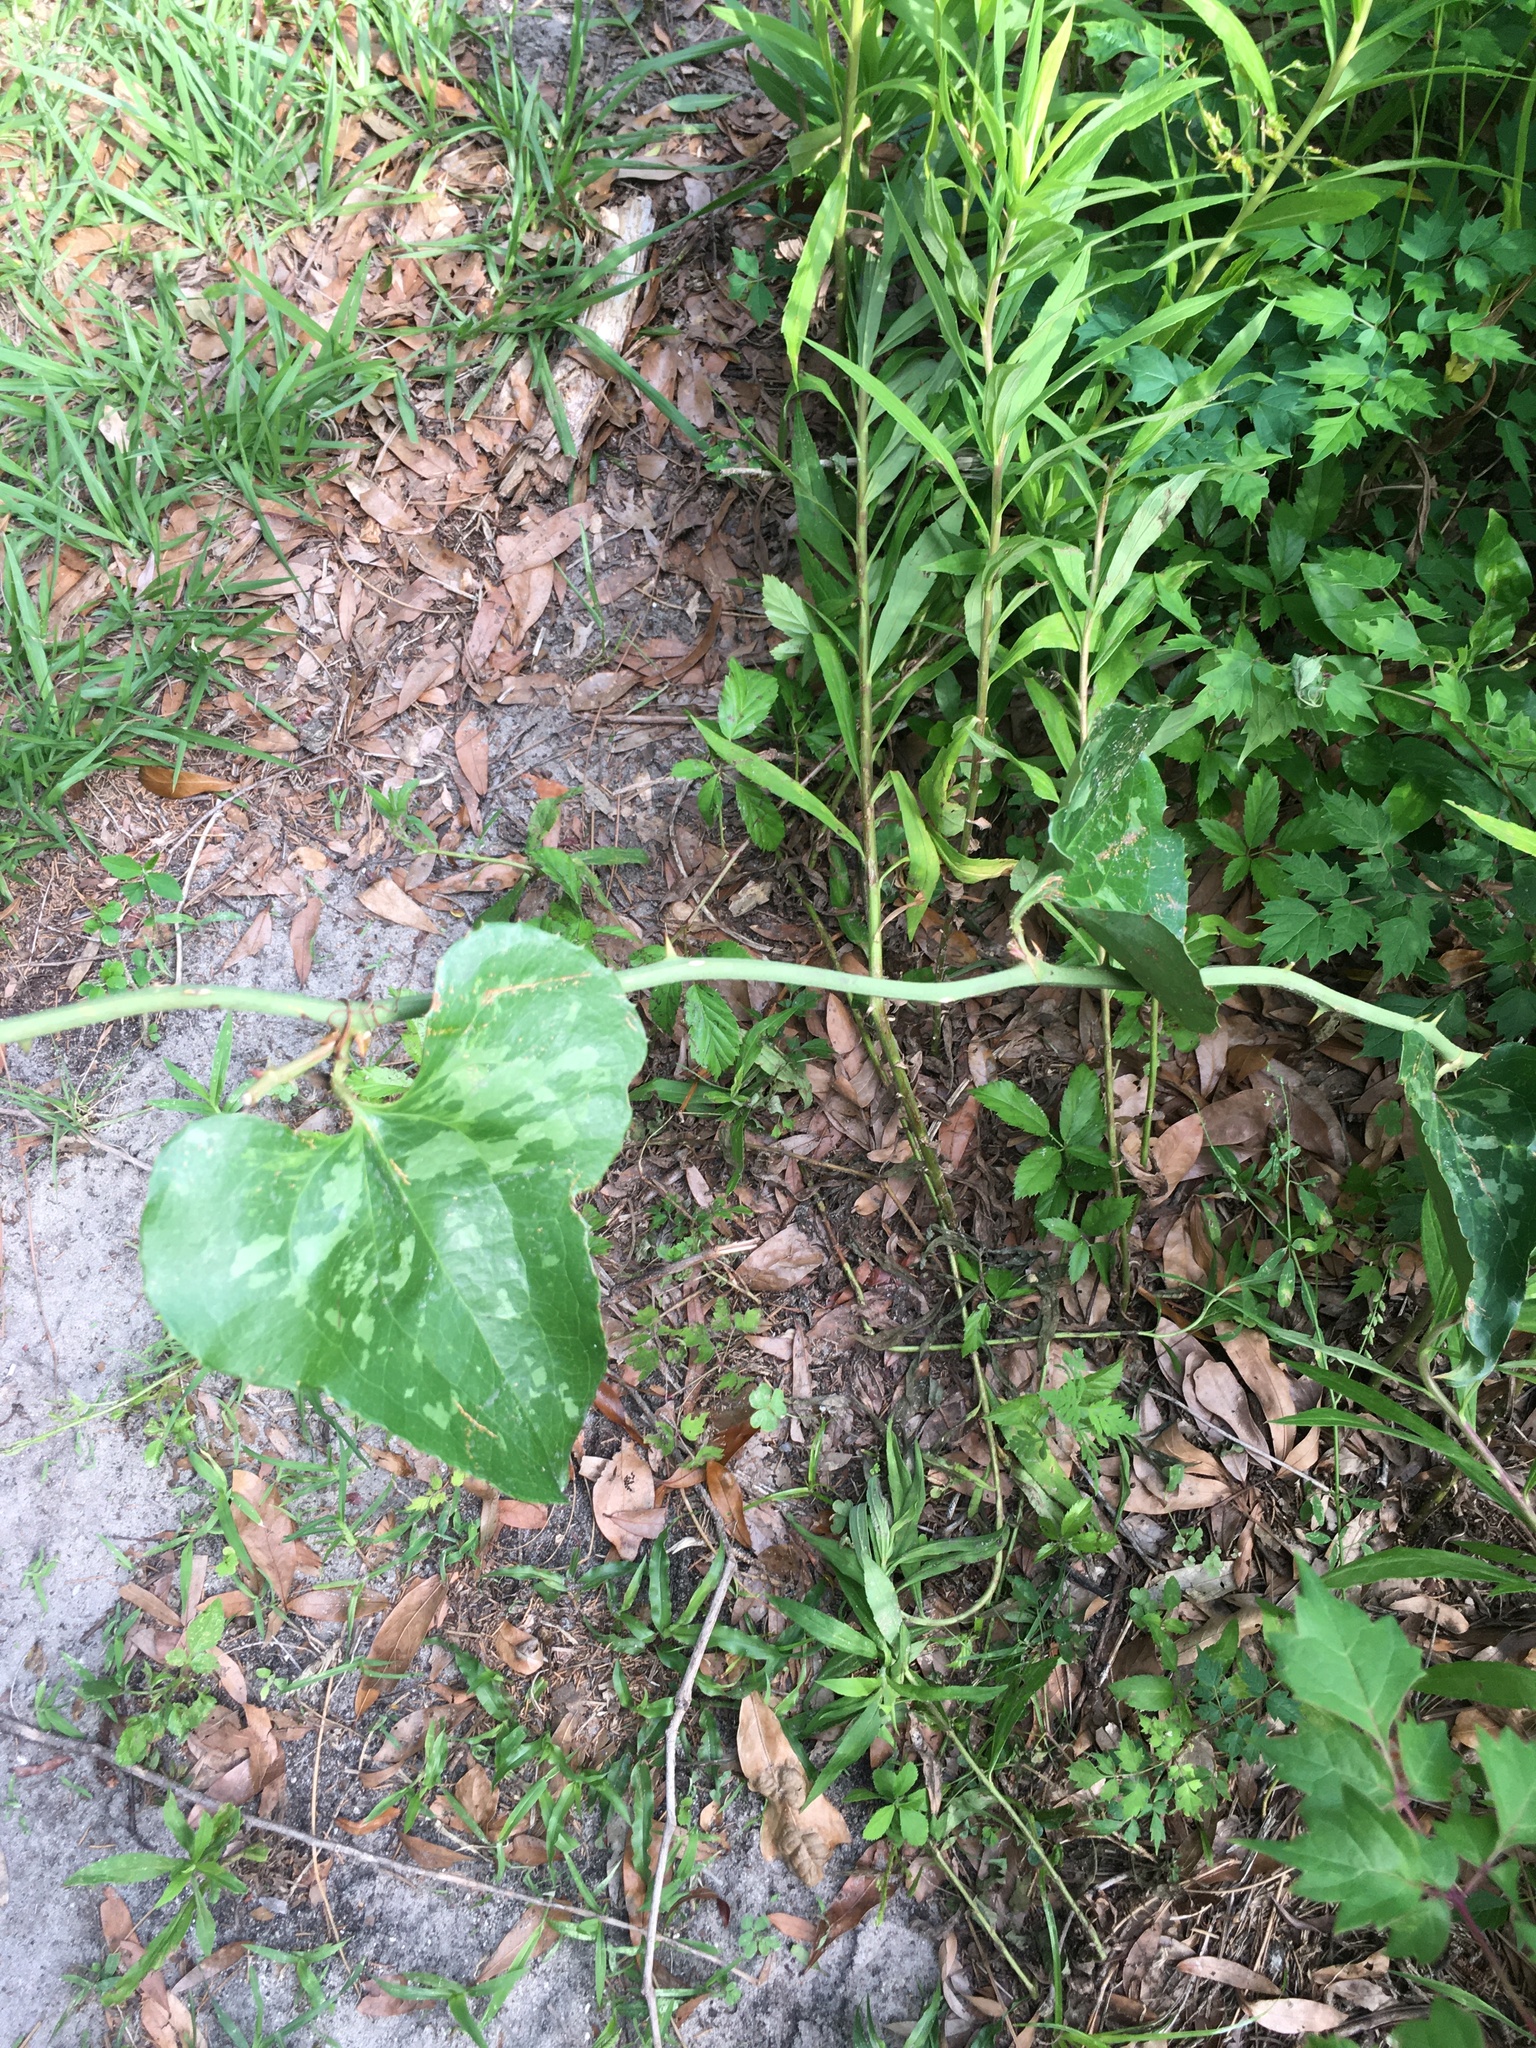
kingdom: Plantae
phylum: Tracheophyta
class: Liliopsida
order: Liliales
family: Smilacaceae
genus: Smilax
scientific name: Smilax bona-nox
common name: Catbrier
